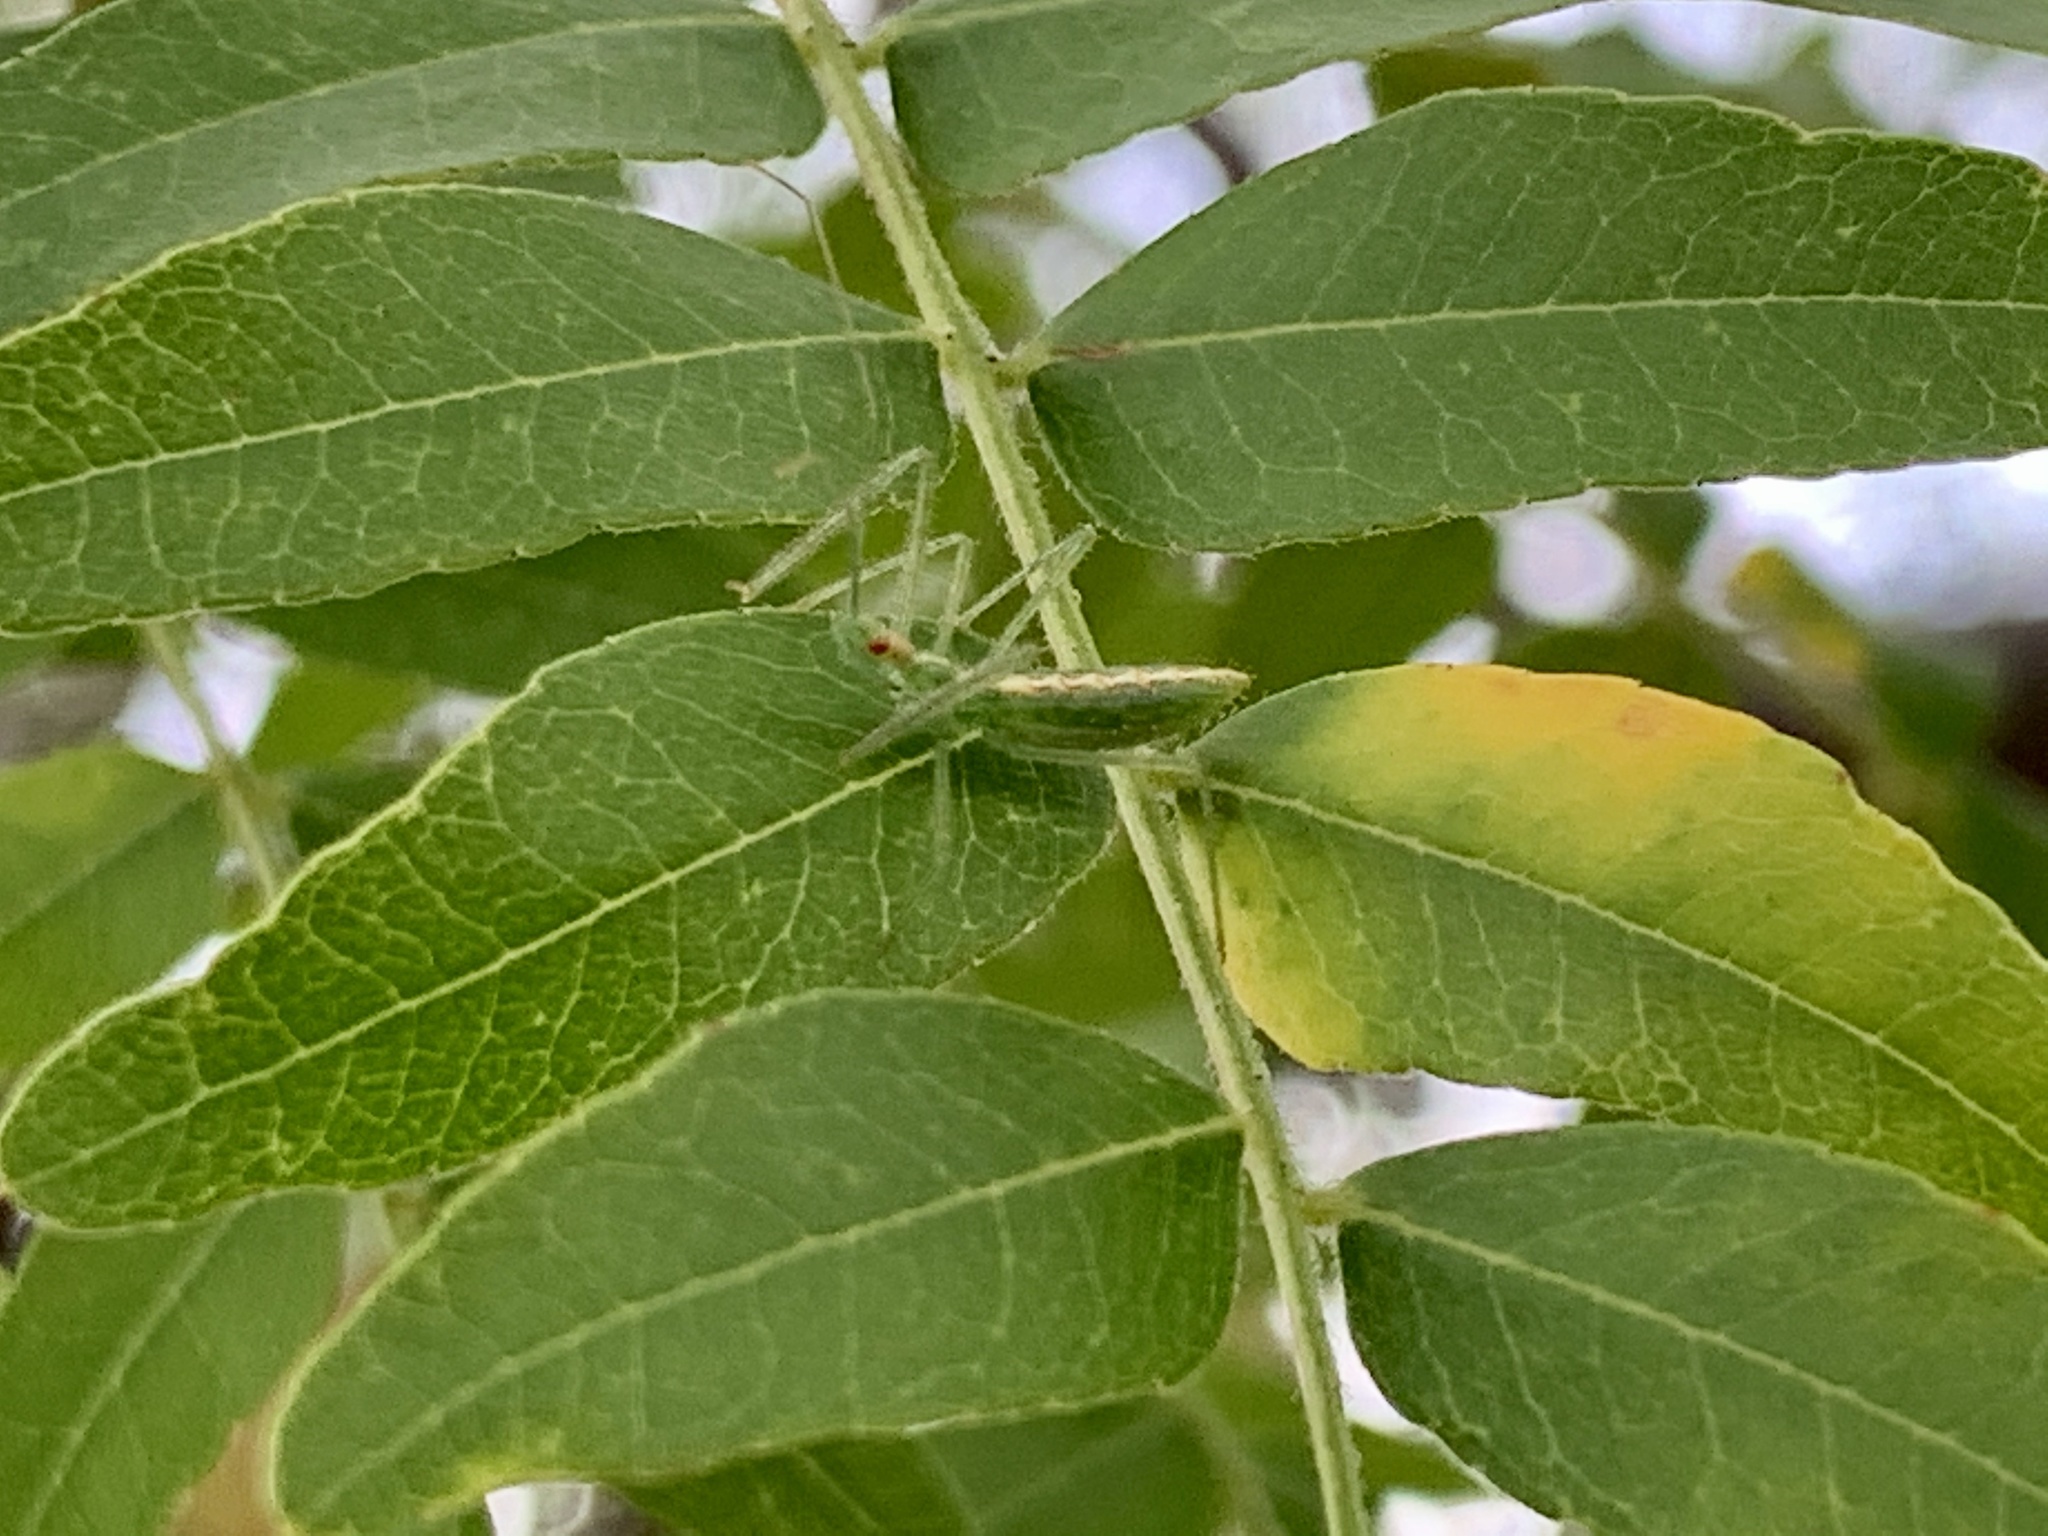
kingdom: Animalia
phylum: Arthropoda
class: Insecta
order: Hemiptera
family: Reduviidae
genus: Zelus
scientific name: Zelus luridus
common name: Pale green assassin bug
